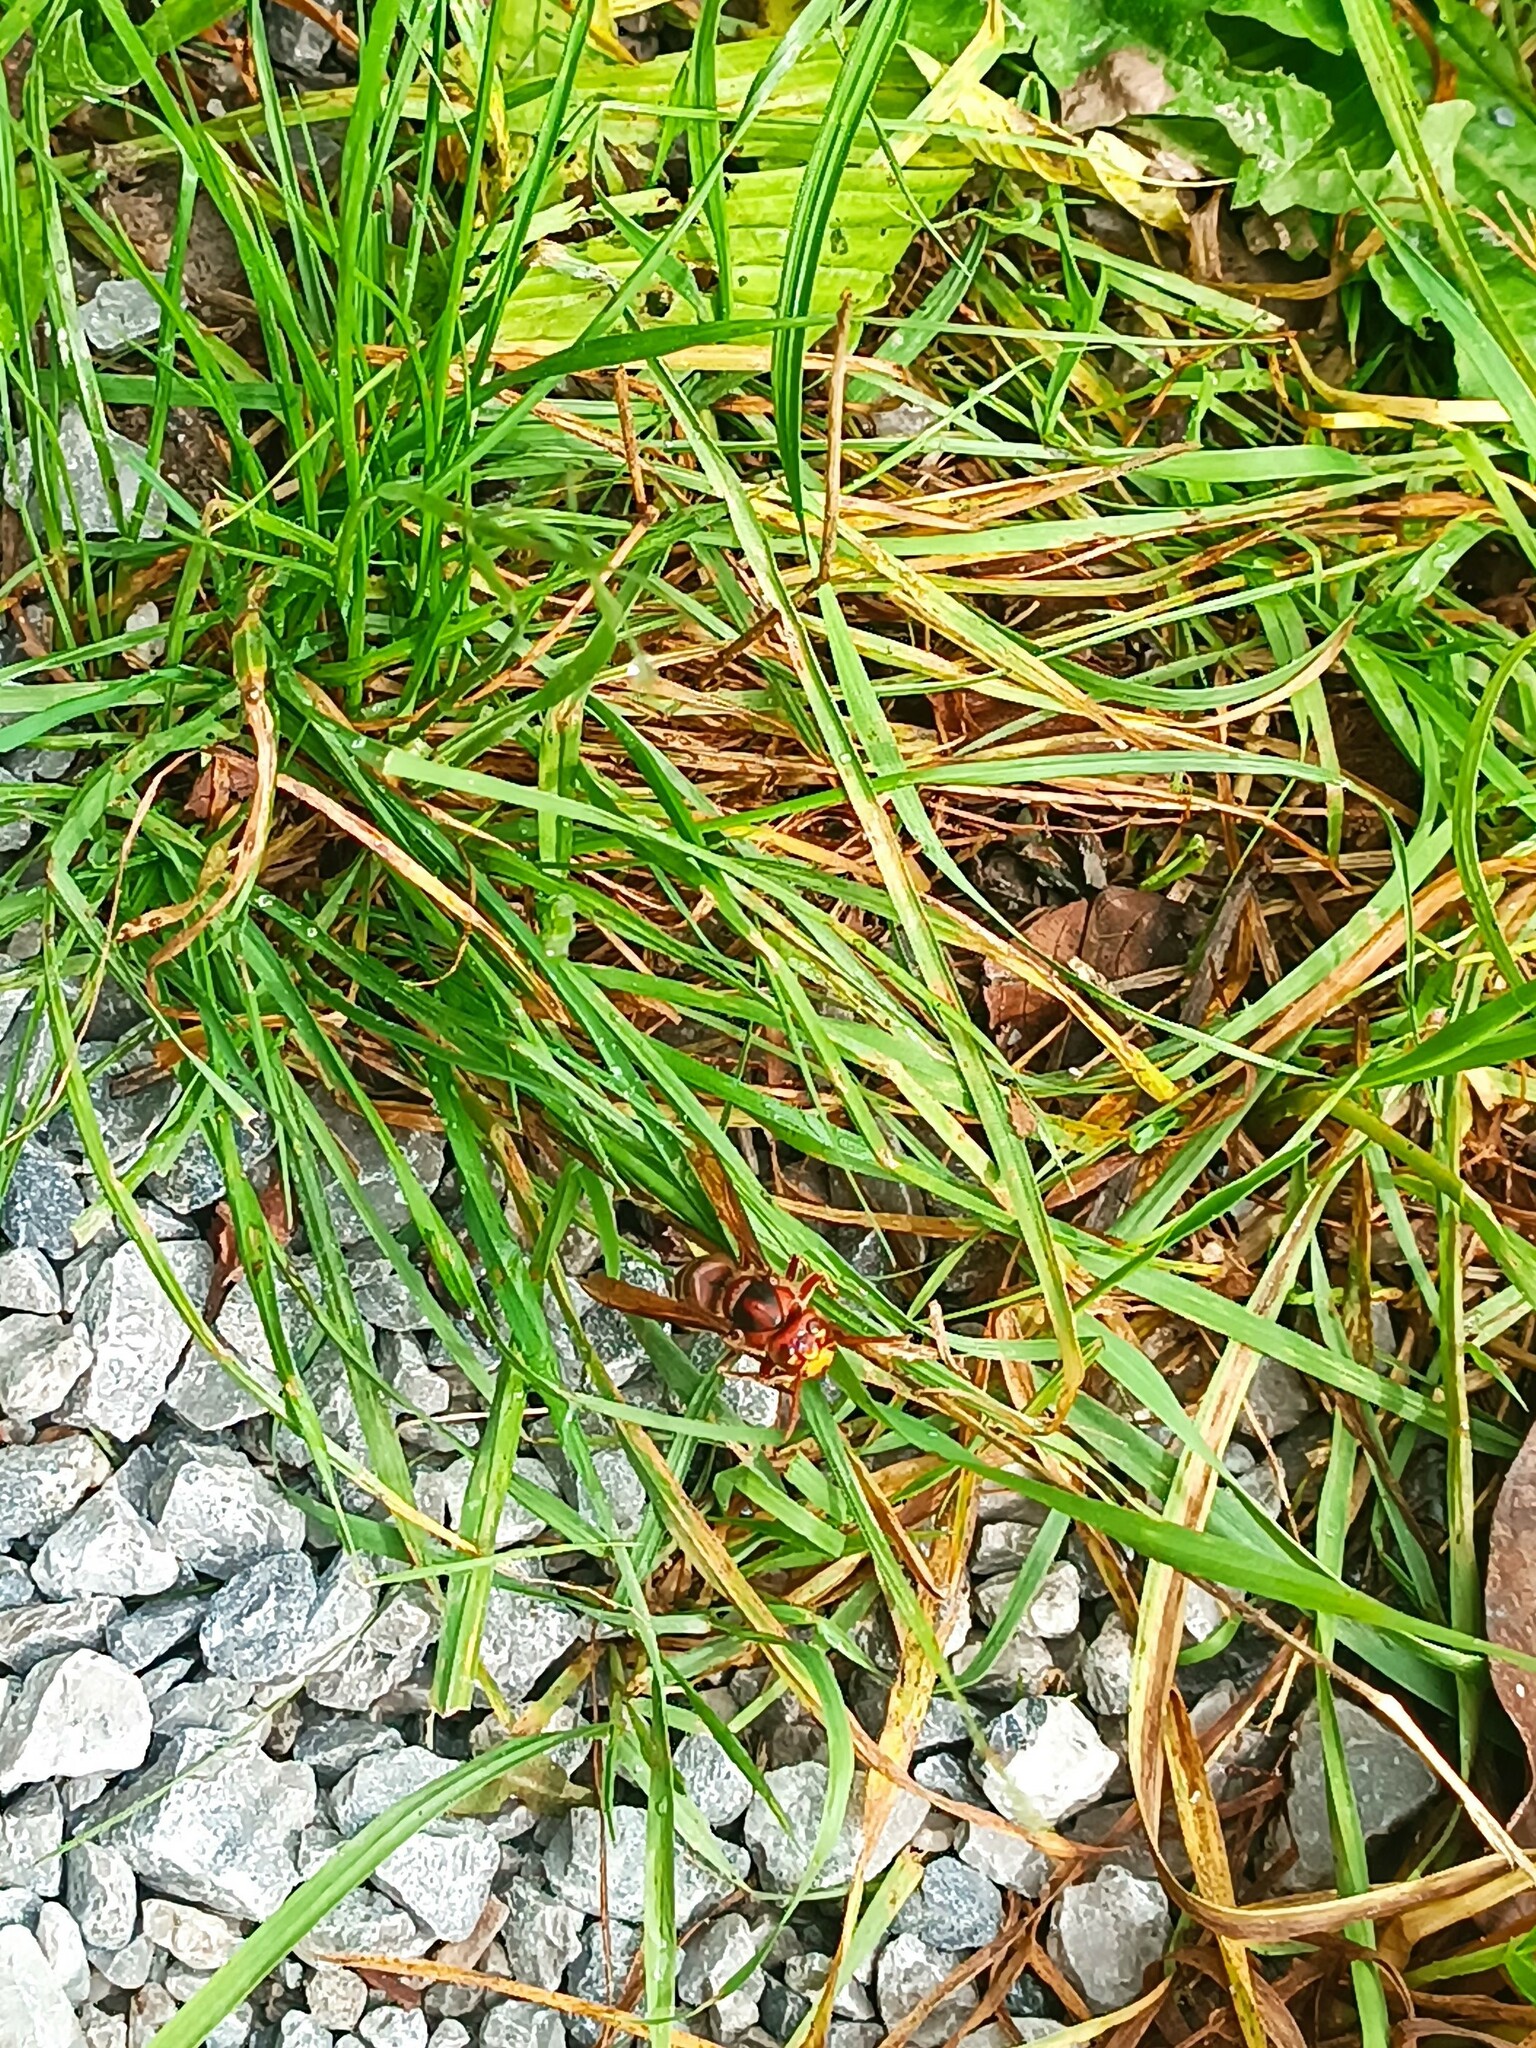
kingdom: Animalia
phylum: Arthropoda
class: Insecta
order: Hymenoptera
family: Vespidae
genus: Vespa
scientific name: Vespa crabro
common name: Hornet
